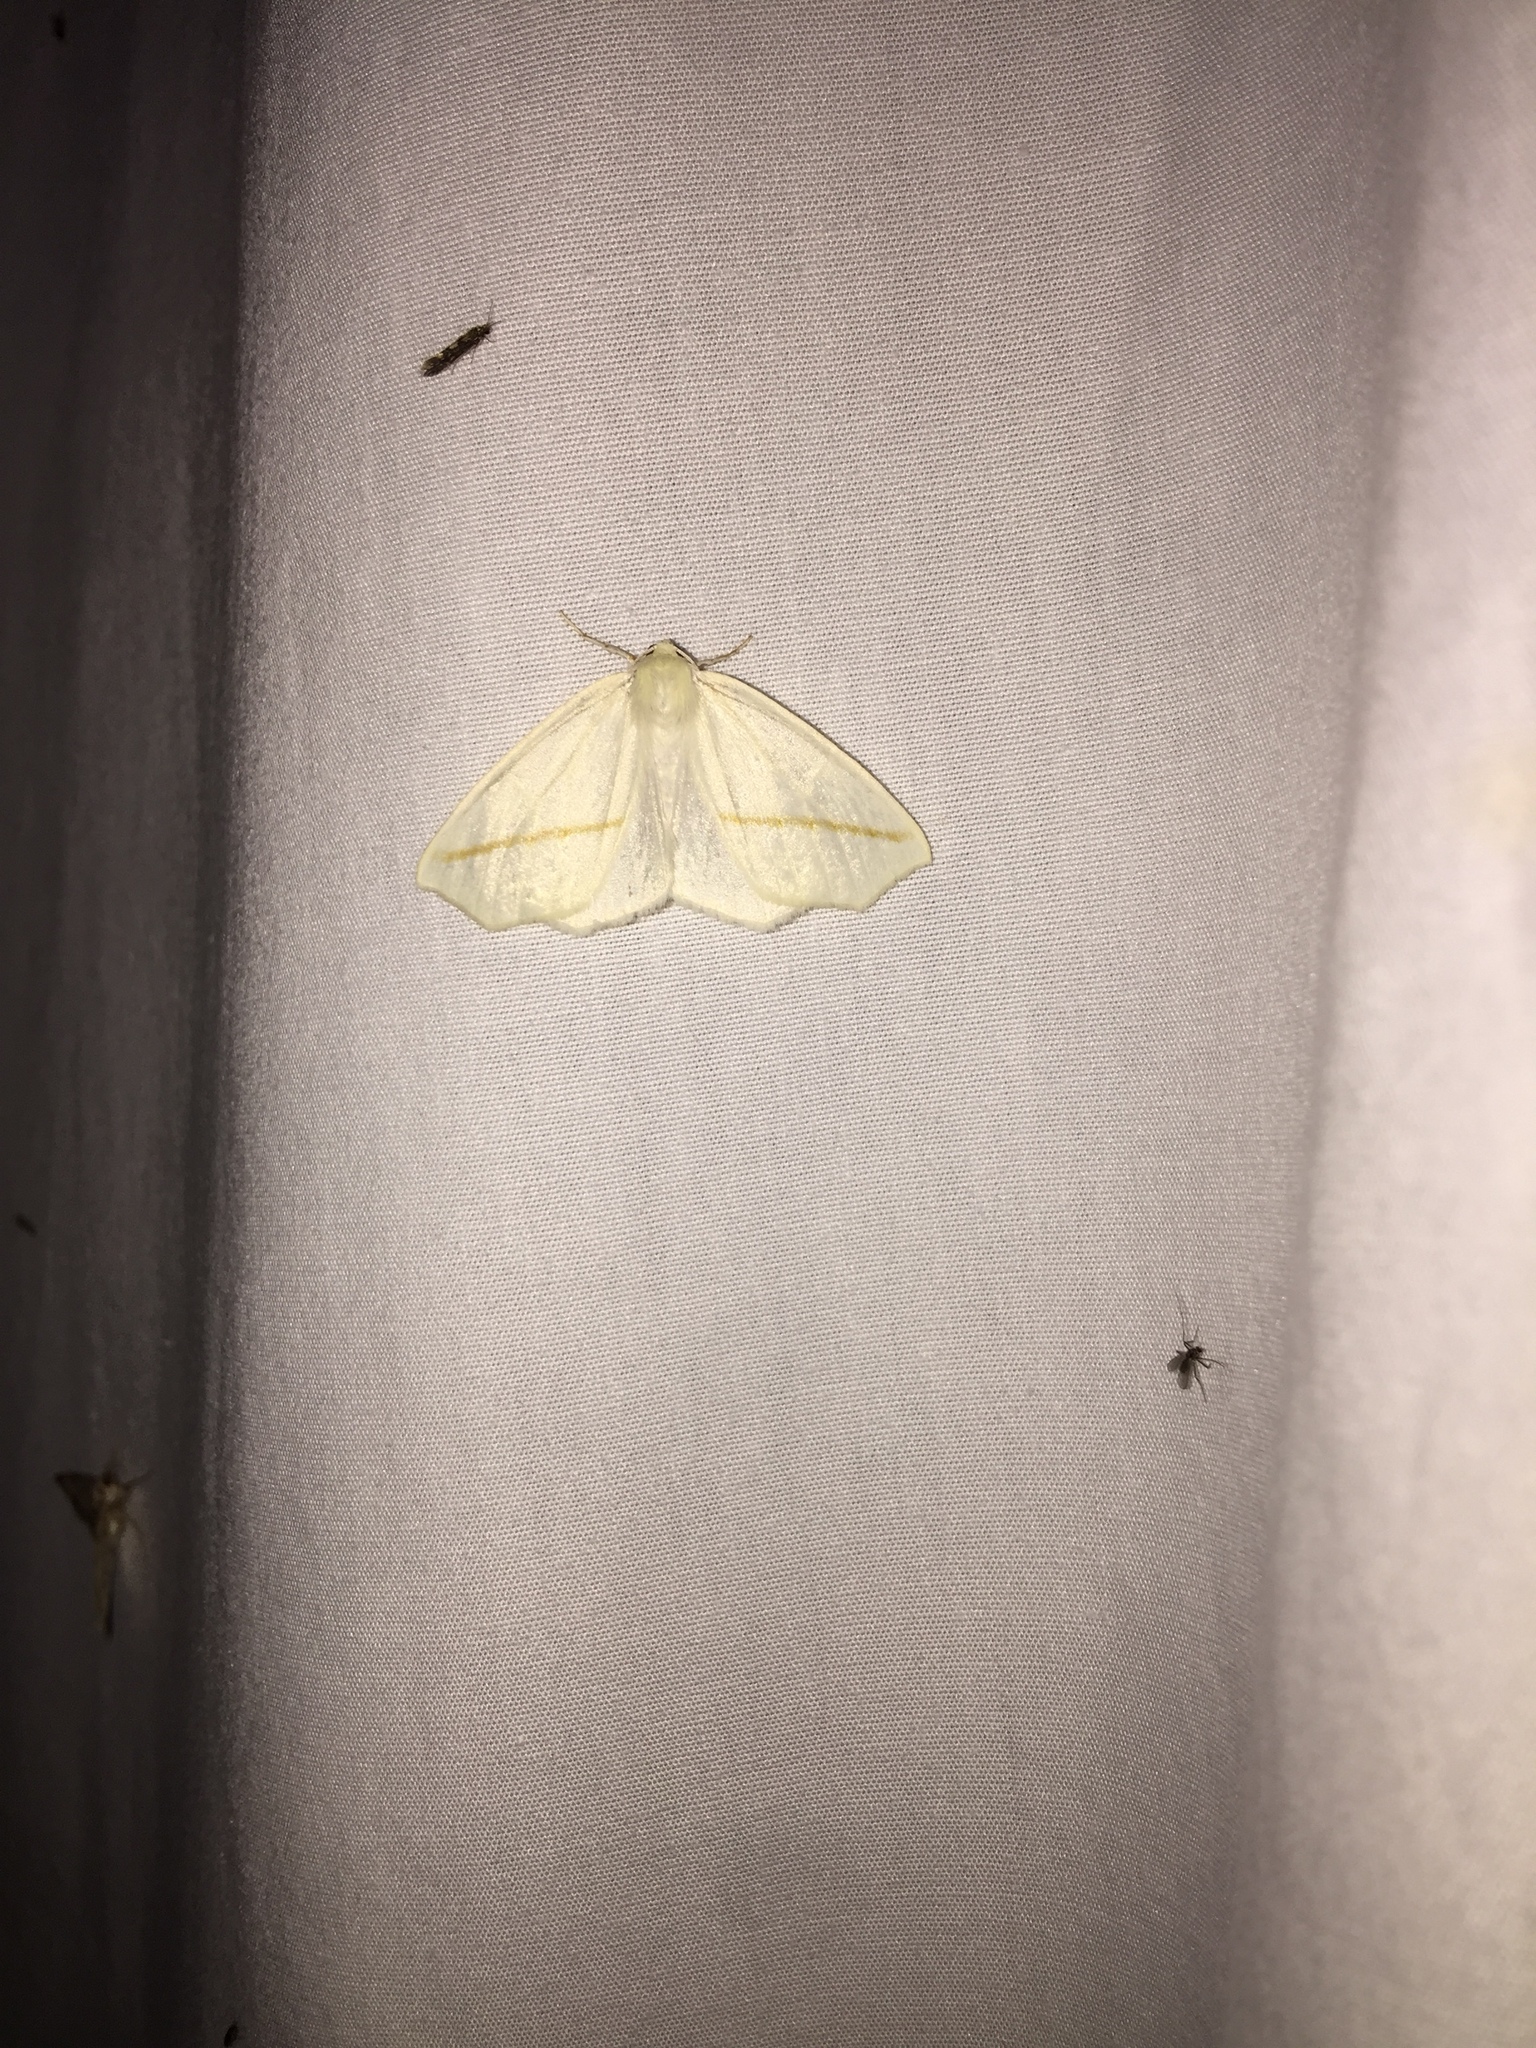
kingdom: Animalia
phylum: Arthropoda
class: Insecta
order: Lepidoptera
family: Geometridae
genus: Tetracis
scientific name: Tetracis cachexiata
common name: White slant-line
